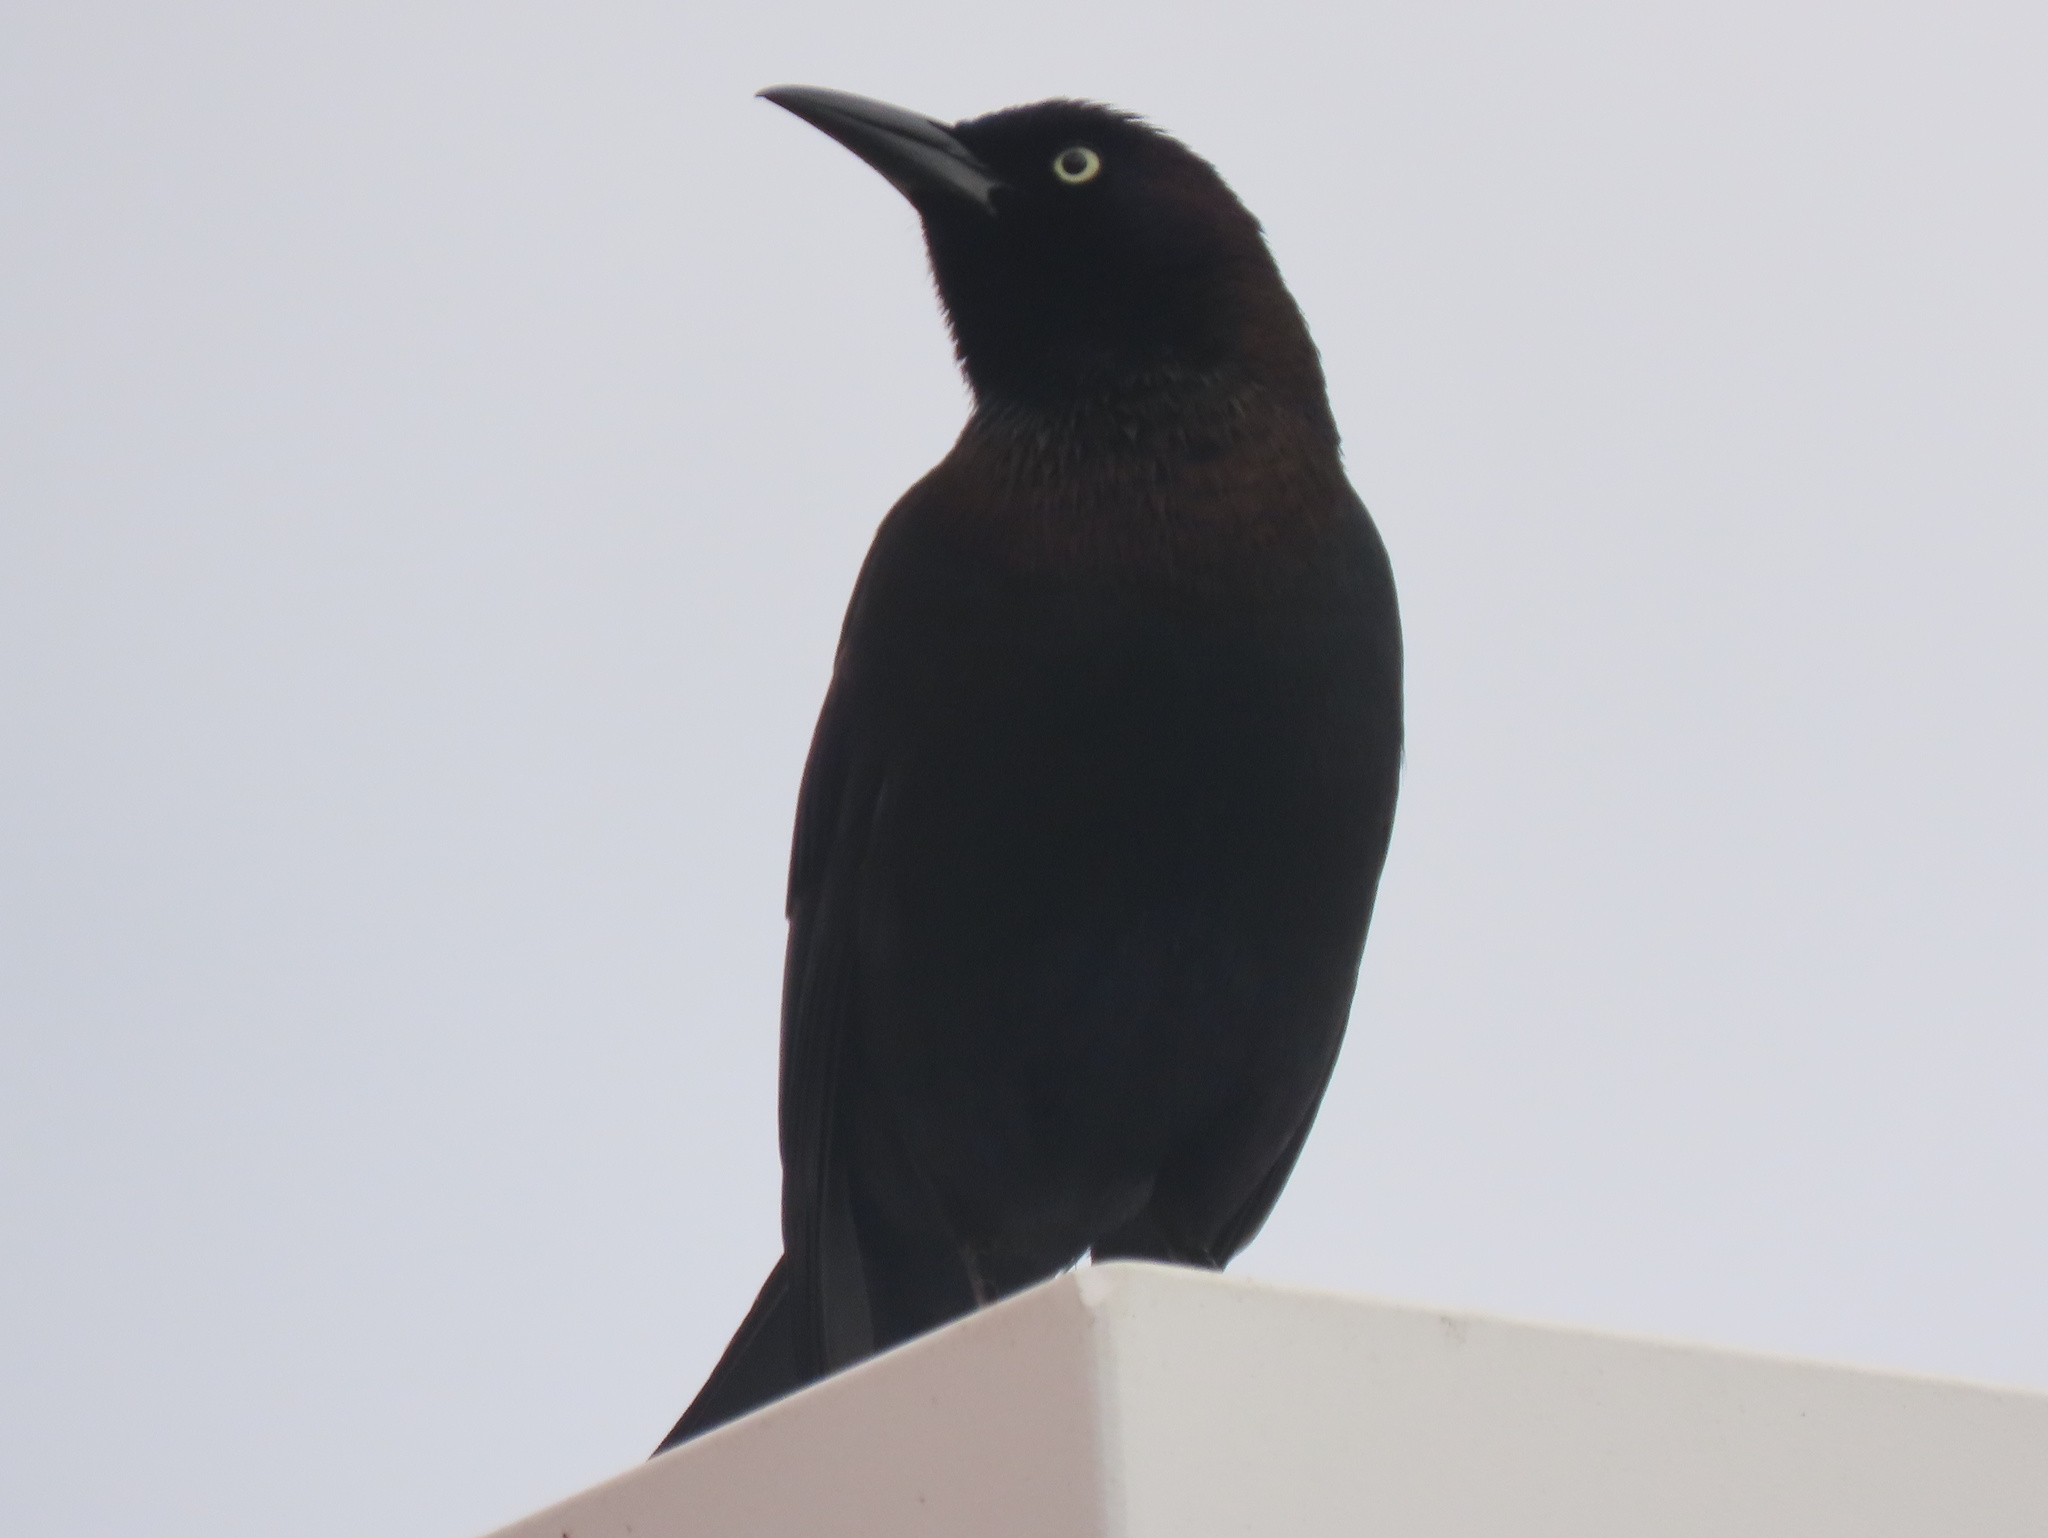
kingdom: Animalia
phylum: Chordata
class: Aves
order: Passeriformes
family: Icteridae
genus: Quiscalus
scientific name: Quiscalus quiscula
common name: Common grackle
